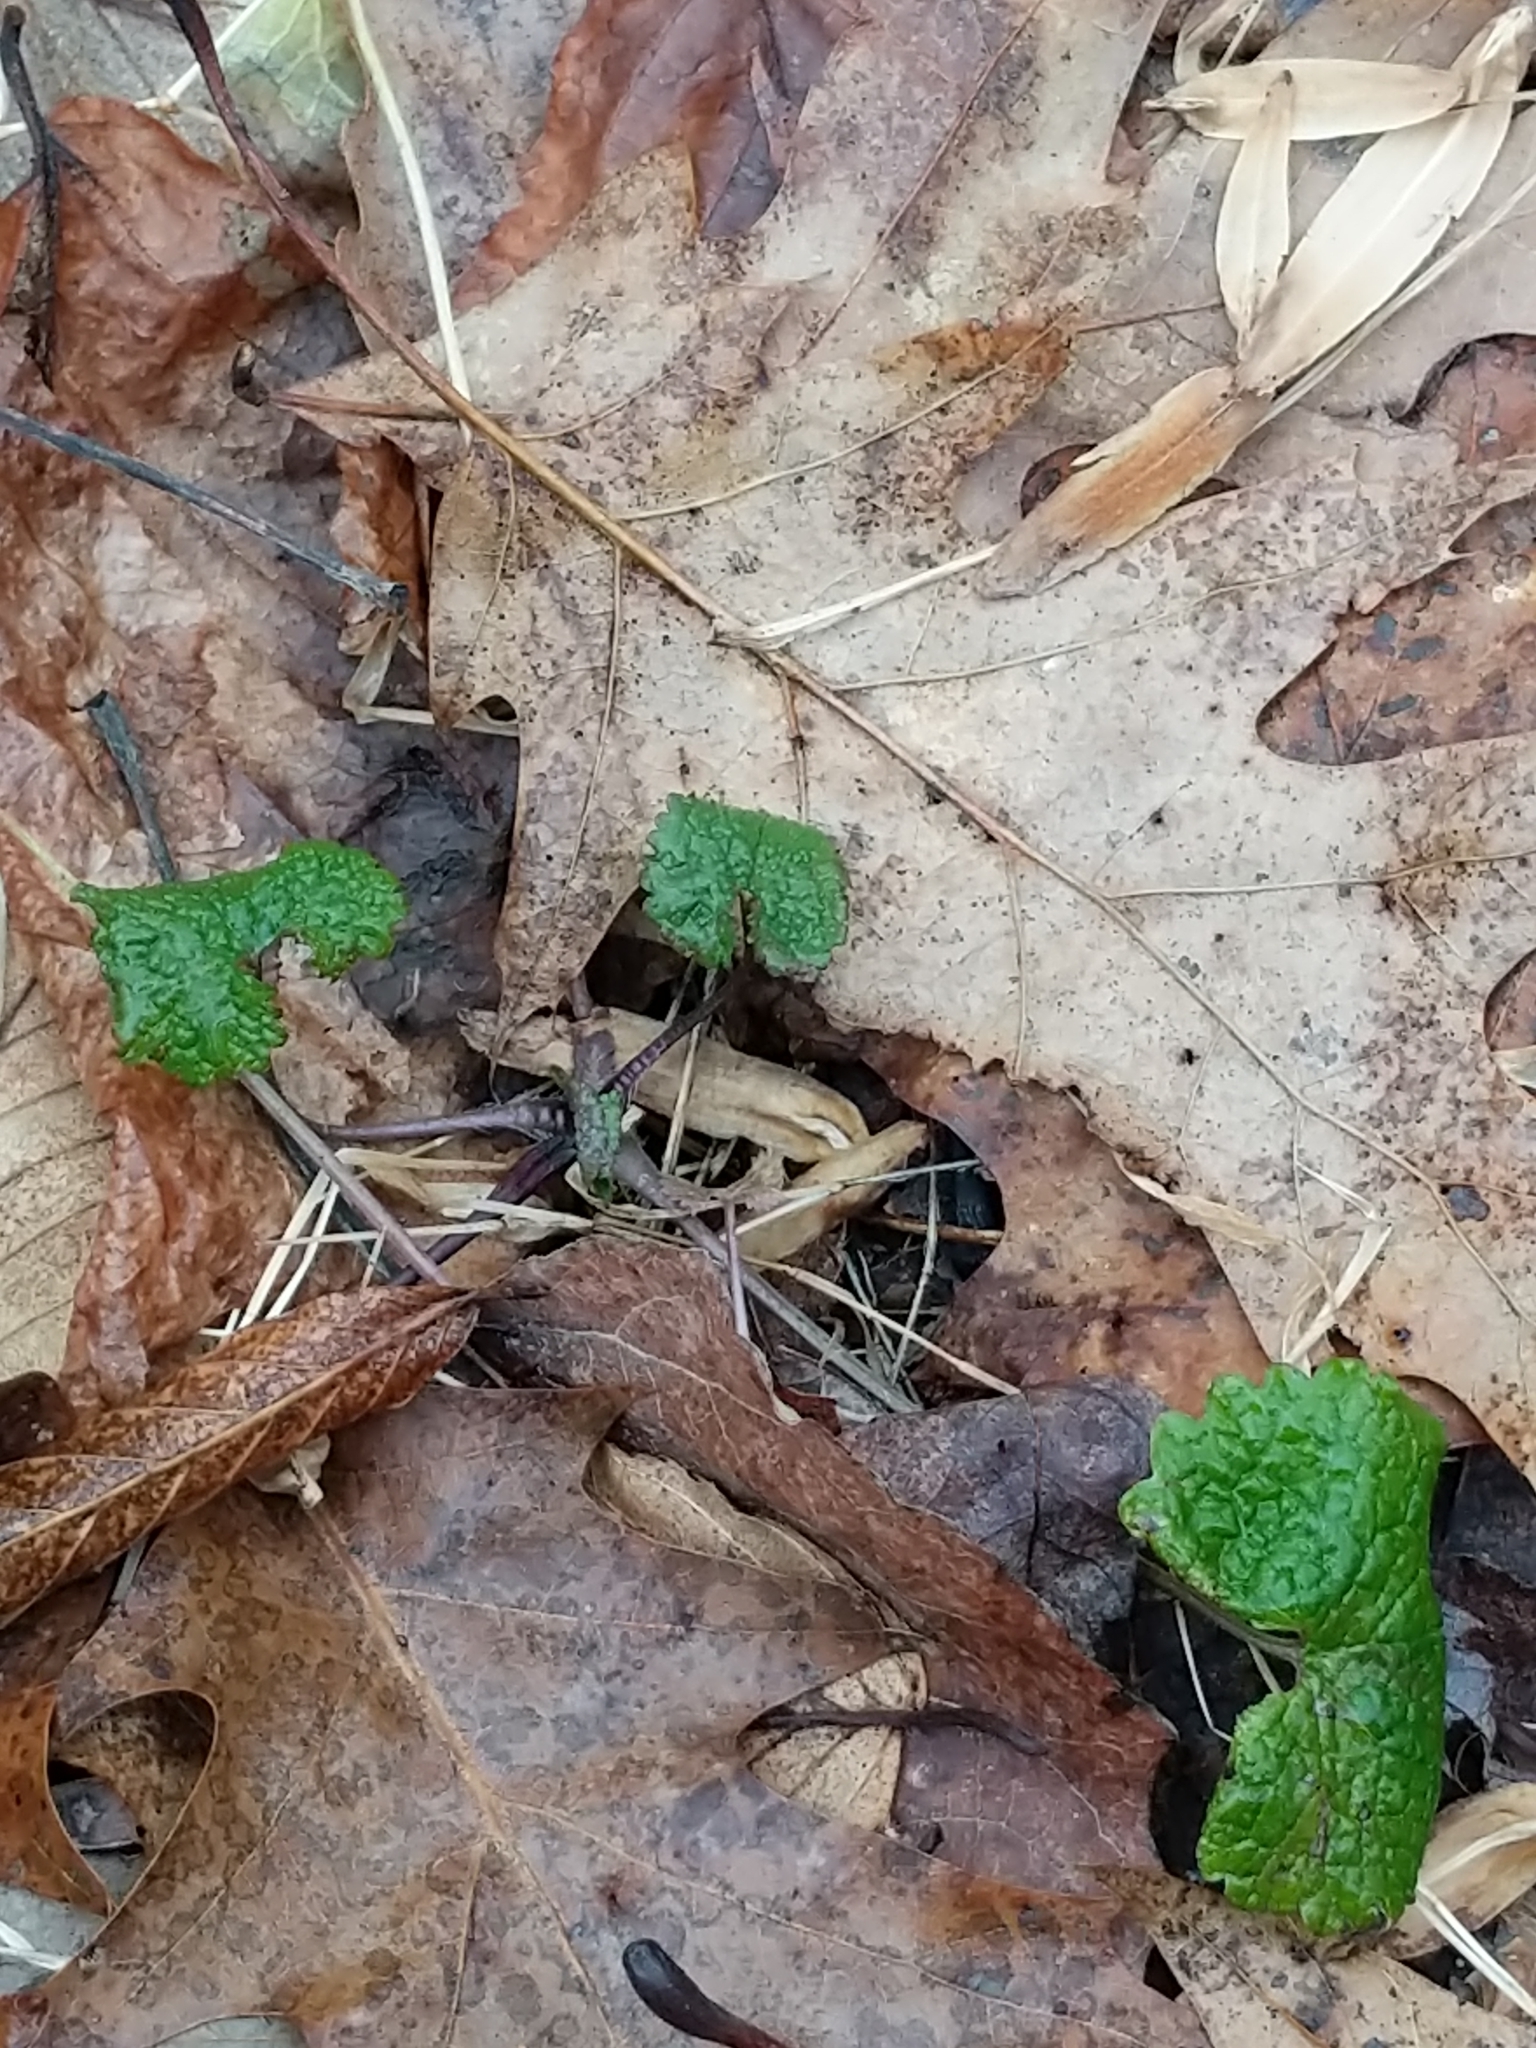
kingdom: Plantae
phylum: Tracheophyta
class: Magnoliopsida
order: Brassicales
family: Brassicaceae
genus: Alliaria
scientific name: Alliaria petiolata
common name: Garlic mustard
